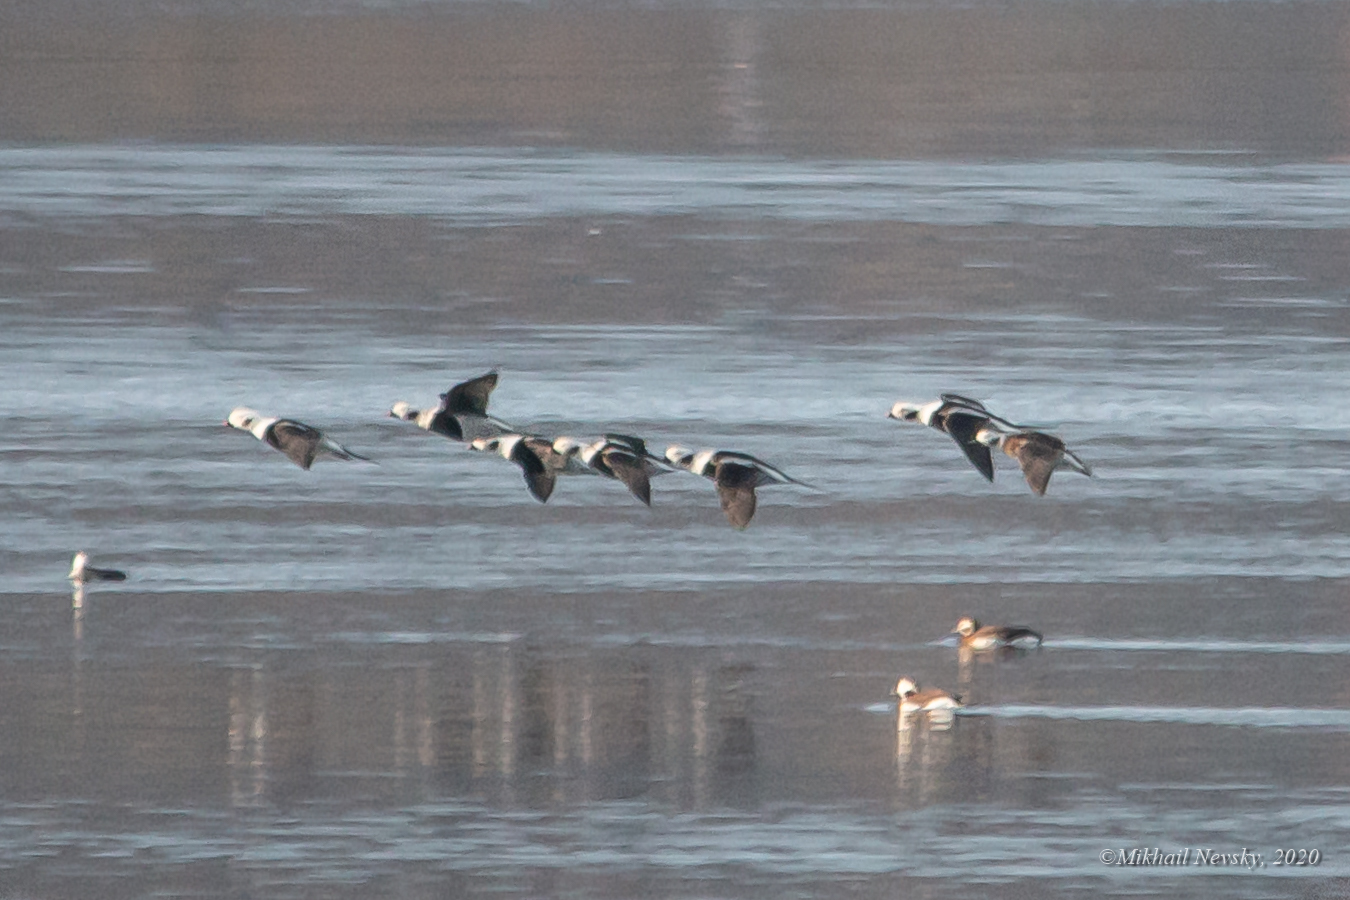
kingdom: Animalia
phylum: Chordata
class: Aves
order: Anseriformes
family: Anatidae
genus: Clangula
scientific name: Clangula hyemalis
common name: Long-tailed duck
